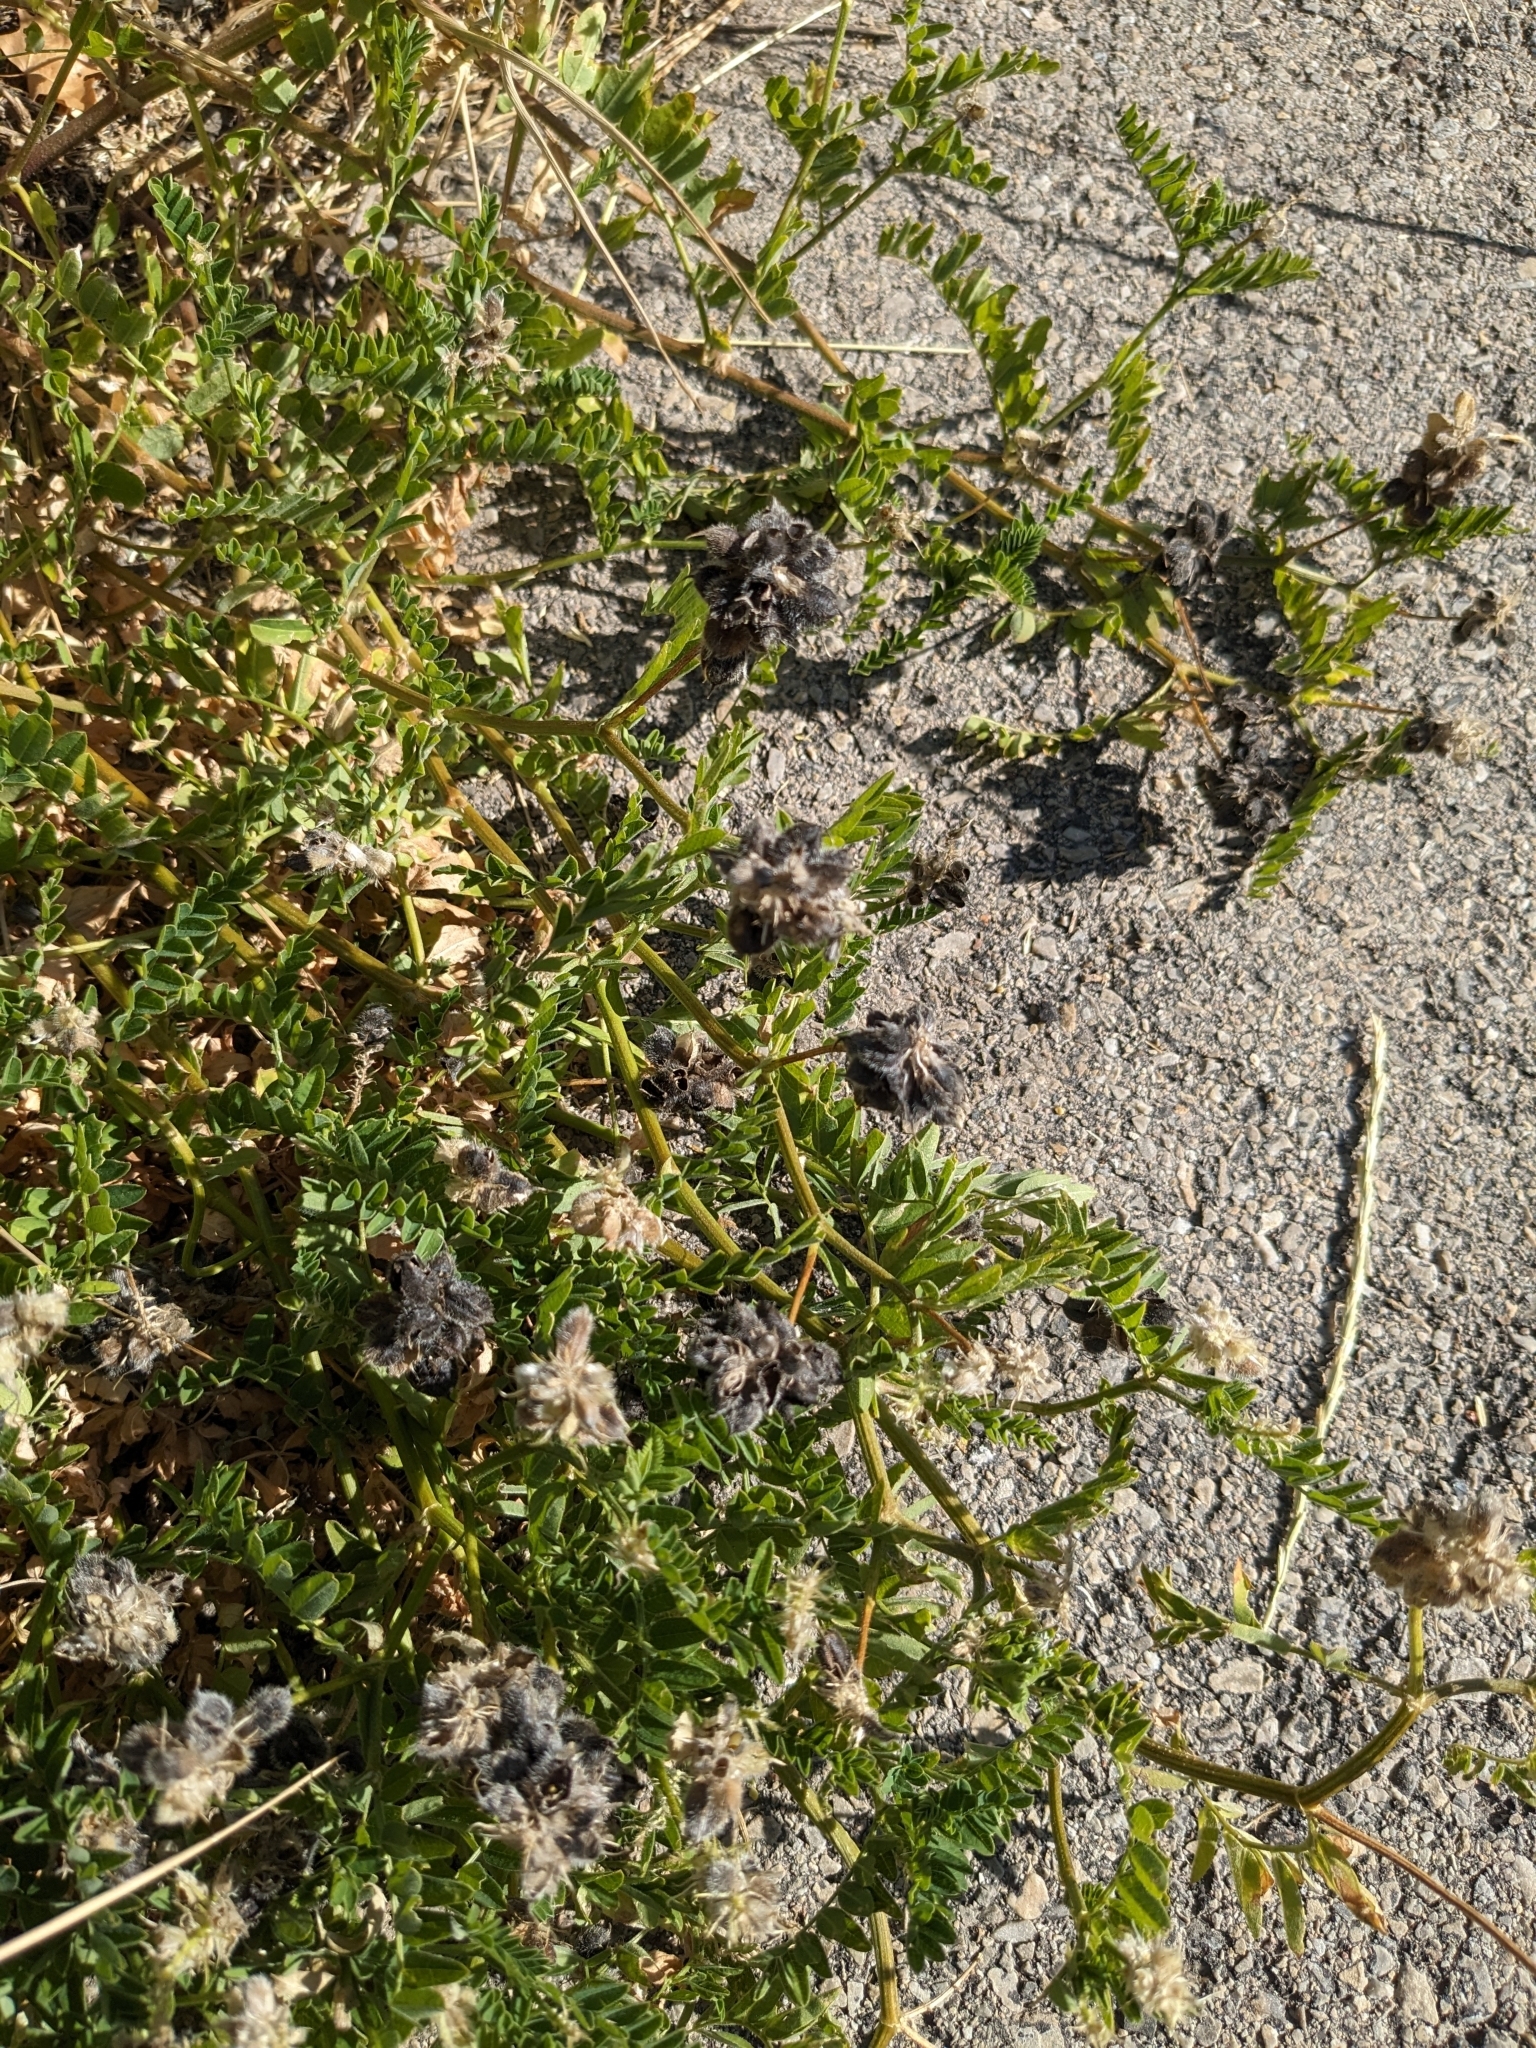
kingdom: Plantae
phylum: Tracheophyta
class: Magnoliopsida
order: Fabales
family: Fabaceae
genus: Astragalus
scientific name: Astragalus cicer
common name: Chick-pea milk-vetch
